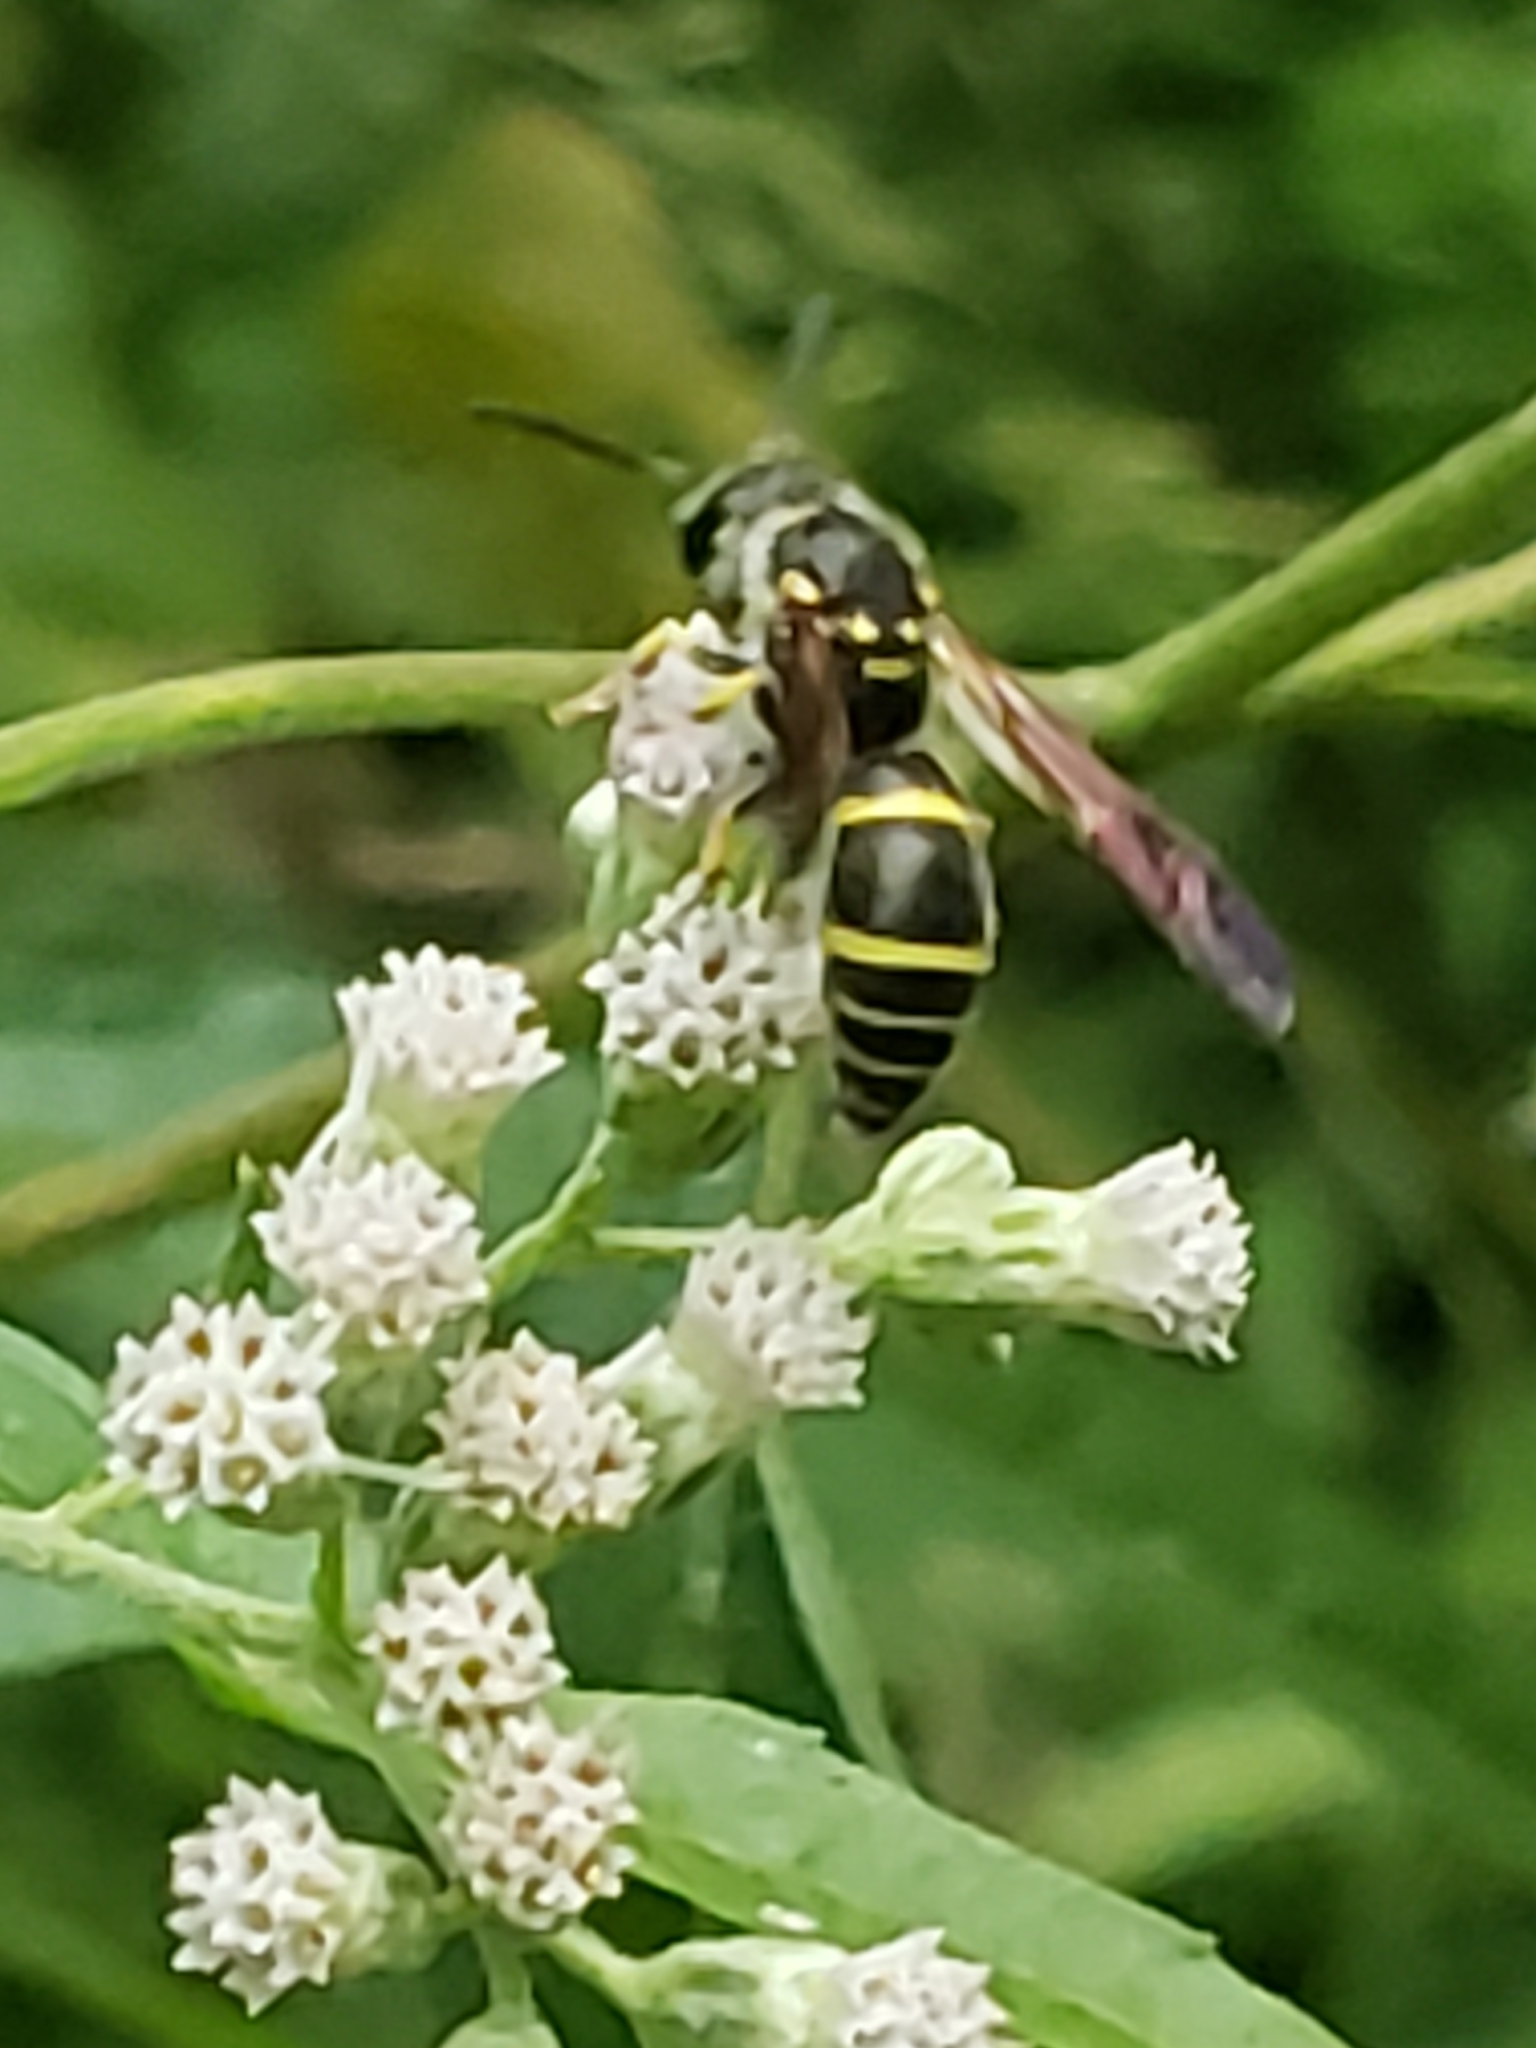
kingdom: Animalia
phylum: Arthropoda
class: Insecta
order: Hymenoptera
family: Vespidae
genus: Ancistrocerus
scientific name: Ancistrocerus adiabatus
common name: Bramble mason wasp
